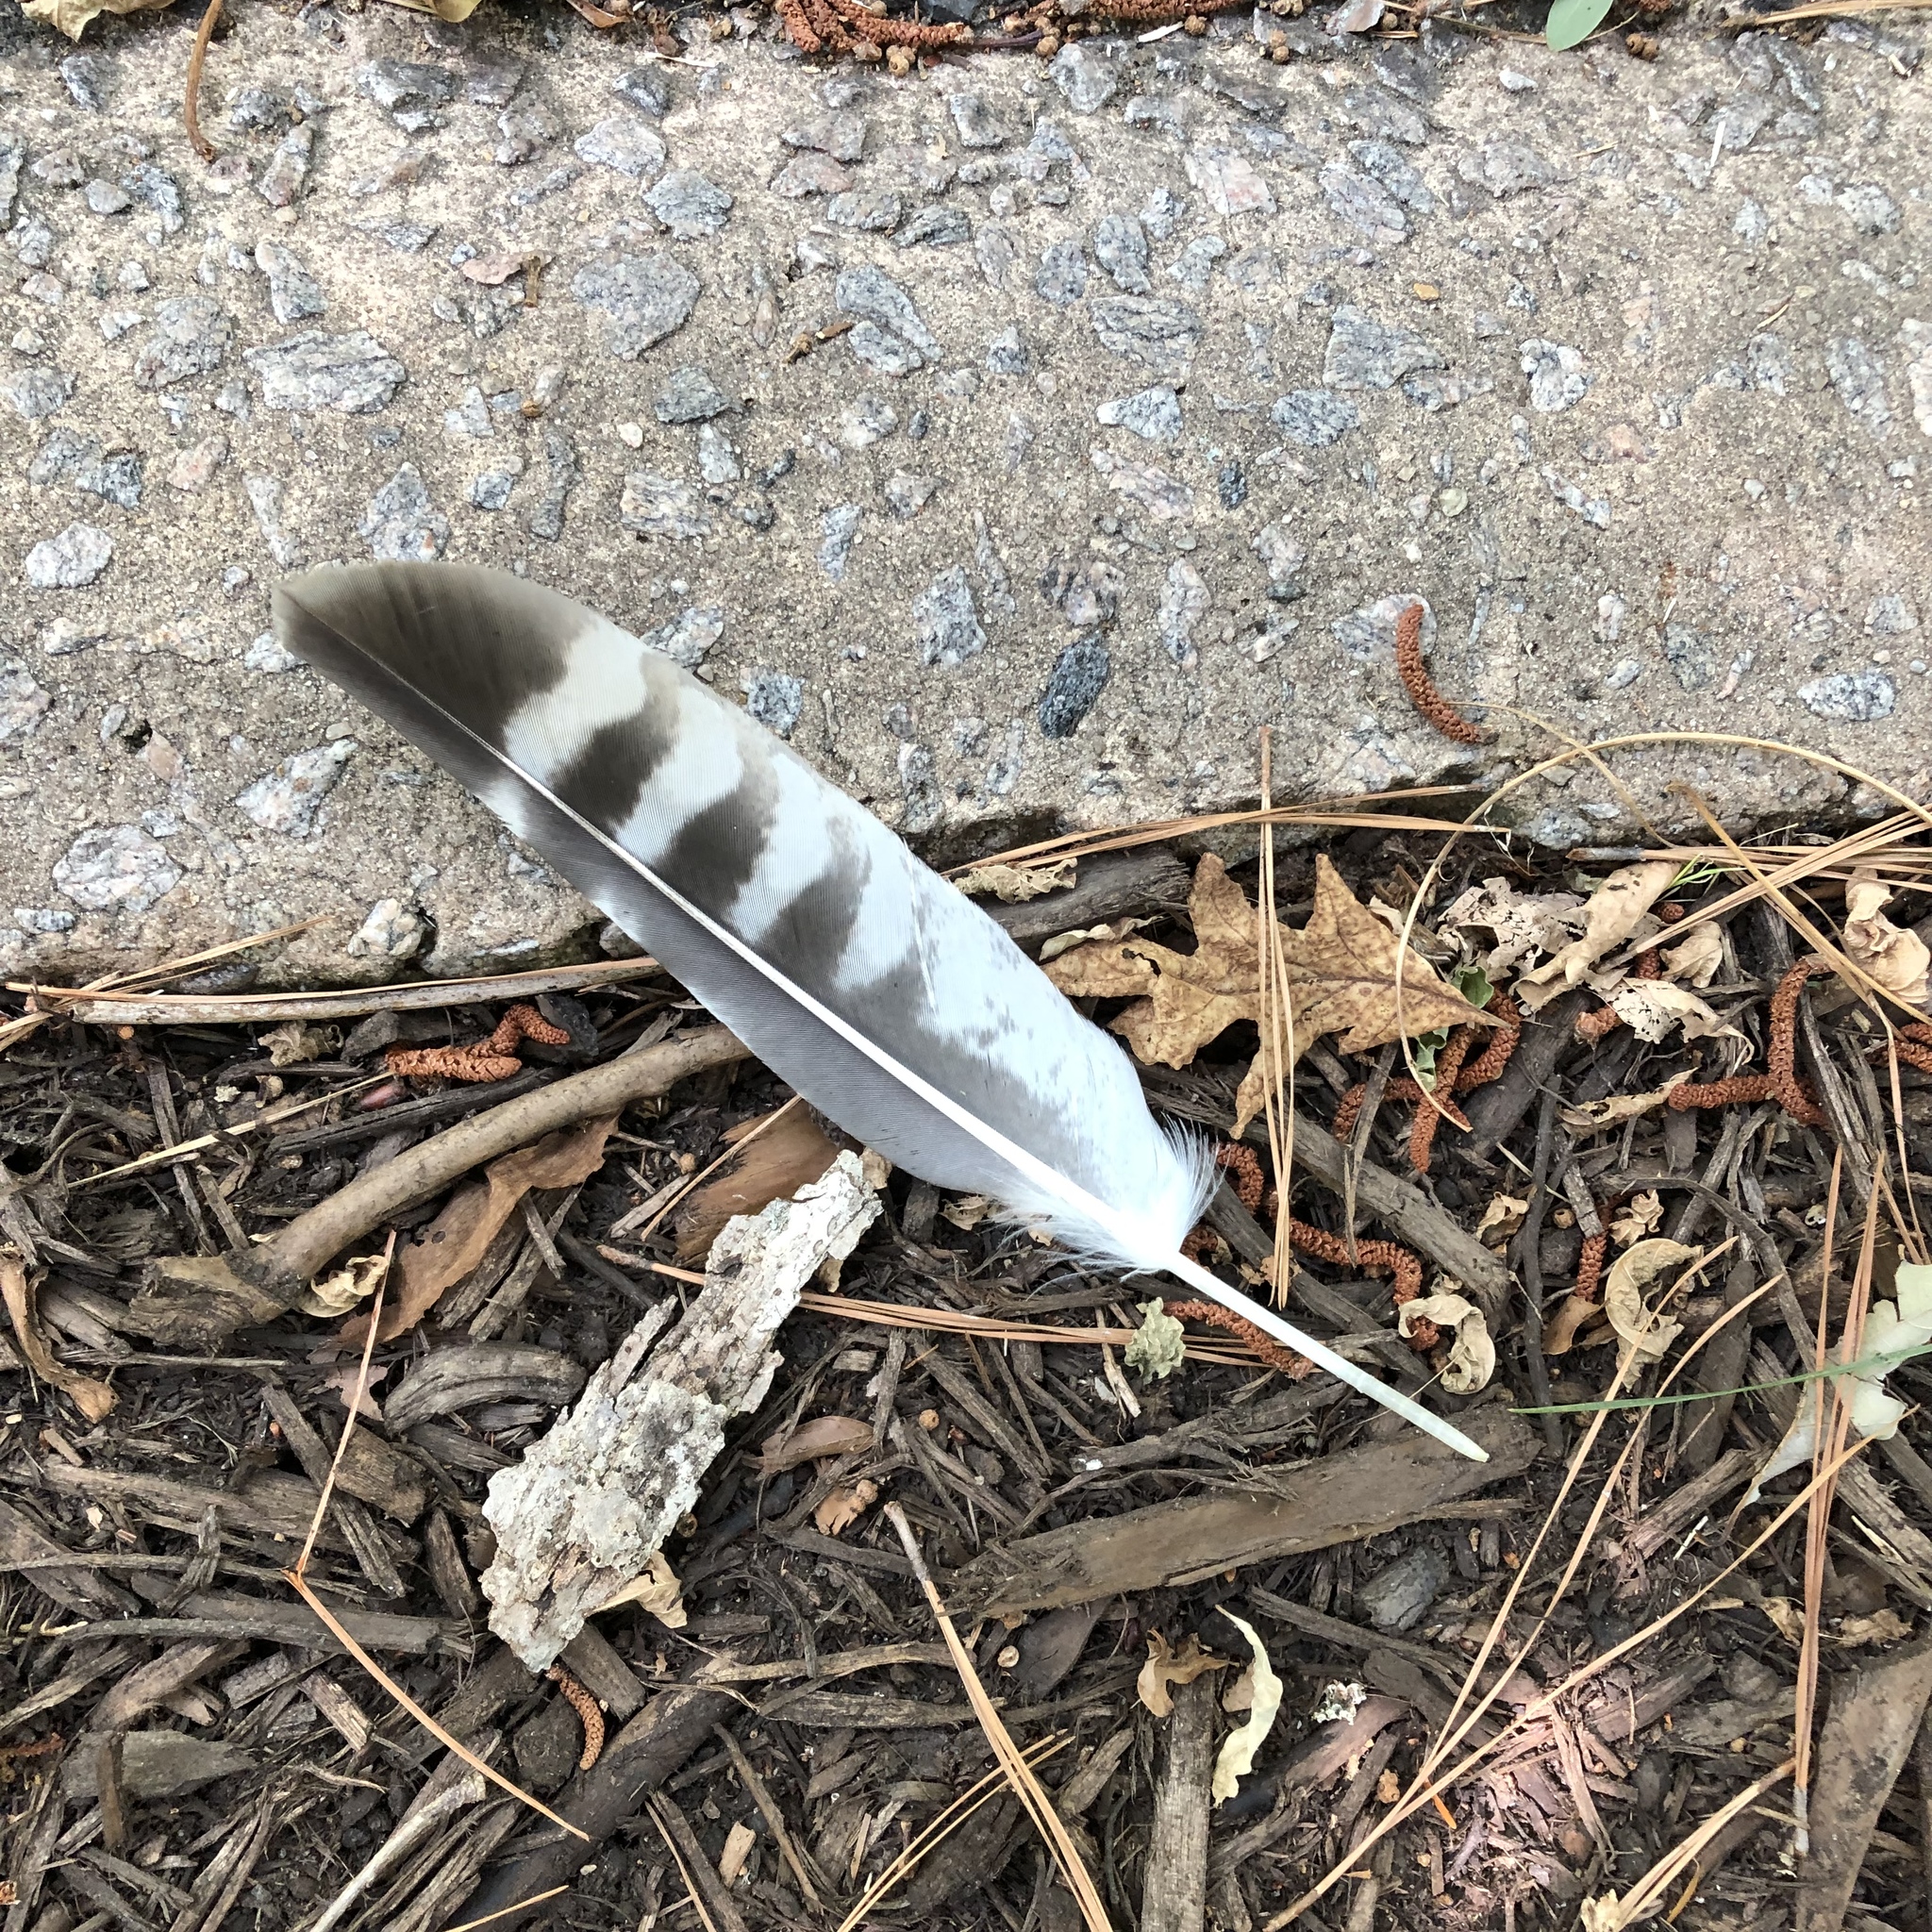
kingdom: Animalia
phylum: Chordata
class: Aves
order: Accipitriformes
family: Accipitridae
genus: Buteo
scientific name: Buteo lineatus
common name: Red-shouldered hawk
